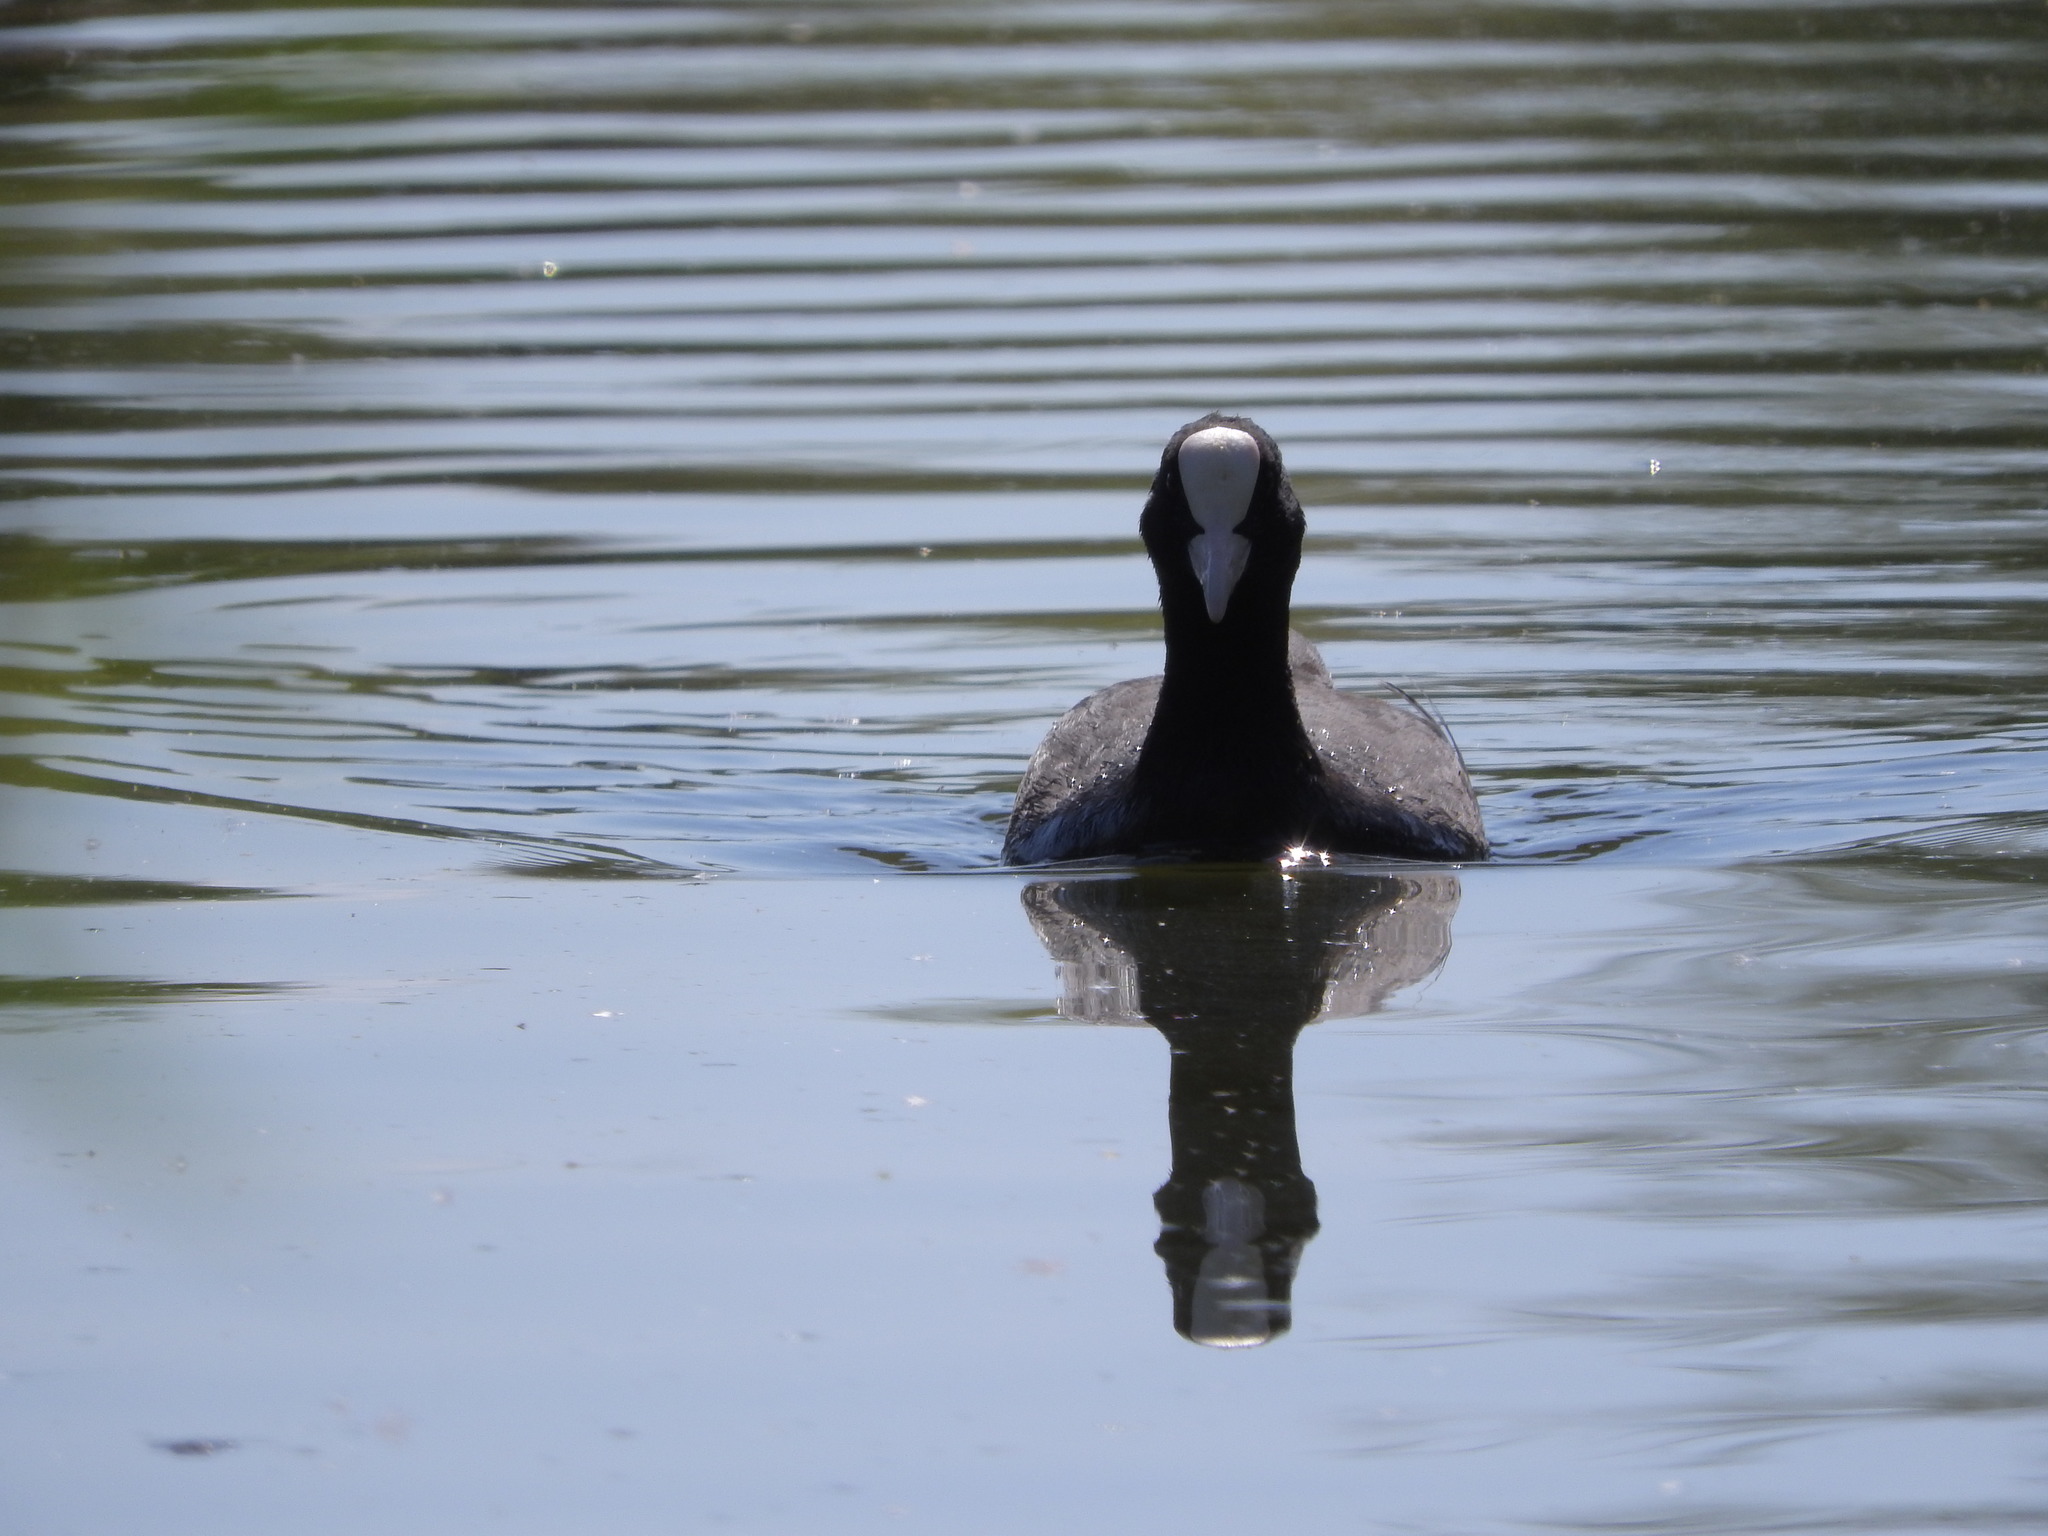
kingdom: Animalia
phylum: Chordata
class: Aves
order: Gruiformes
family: Rallidae
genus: Fulica
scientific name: Fulica atra
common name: Eurasian coot
